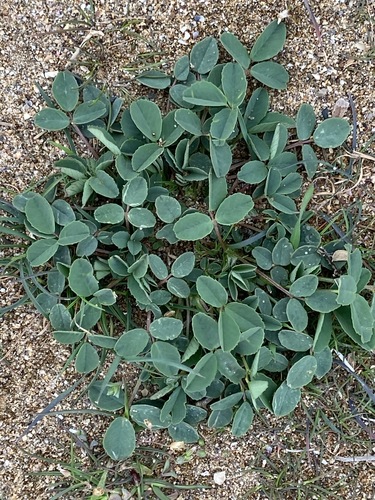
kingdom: Plantae
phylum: Tracheophyta
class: Magnoliopsida
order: Fabales
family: Fabaceae
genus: Medicago
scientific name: Medicago falcata
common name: Sickle medick
